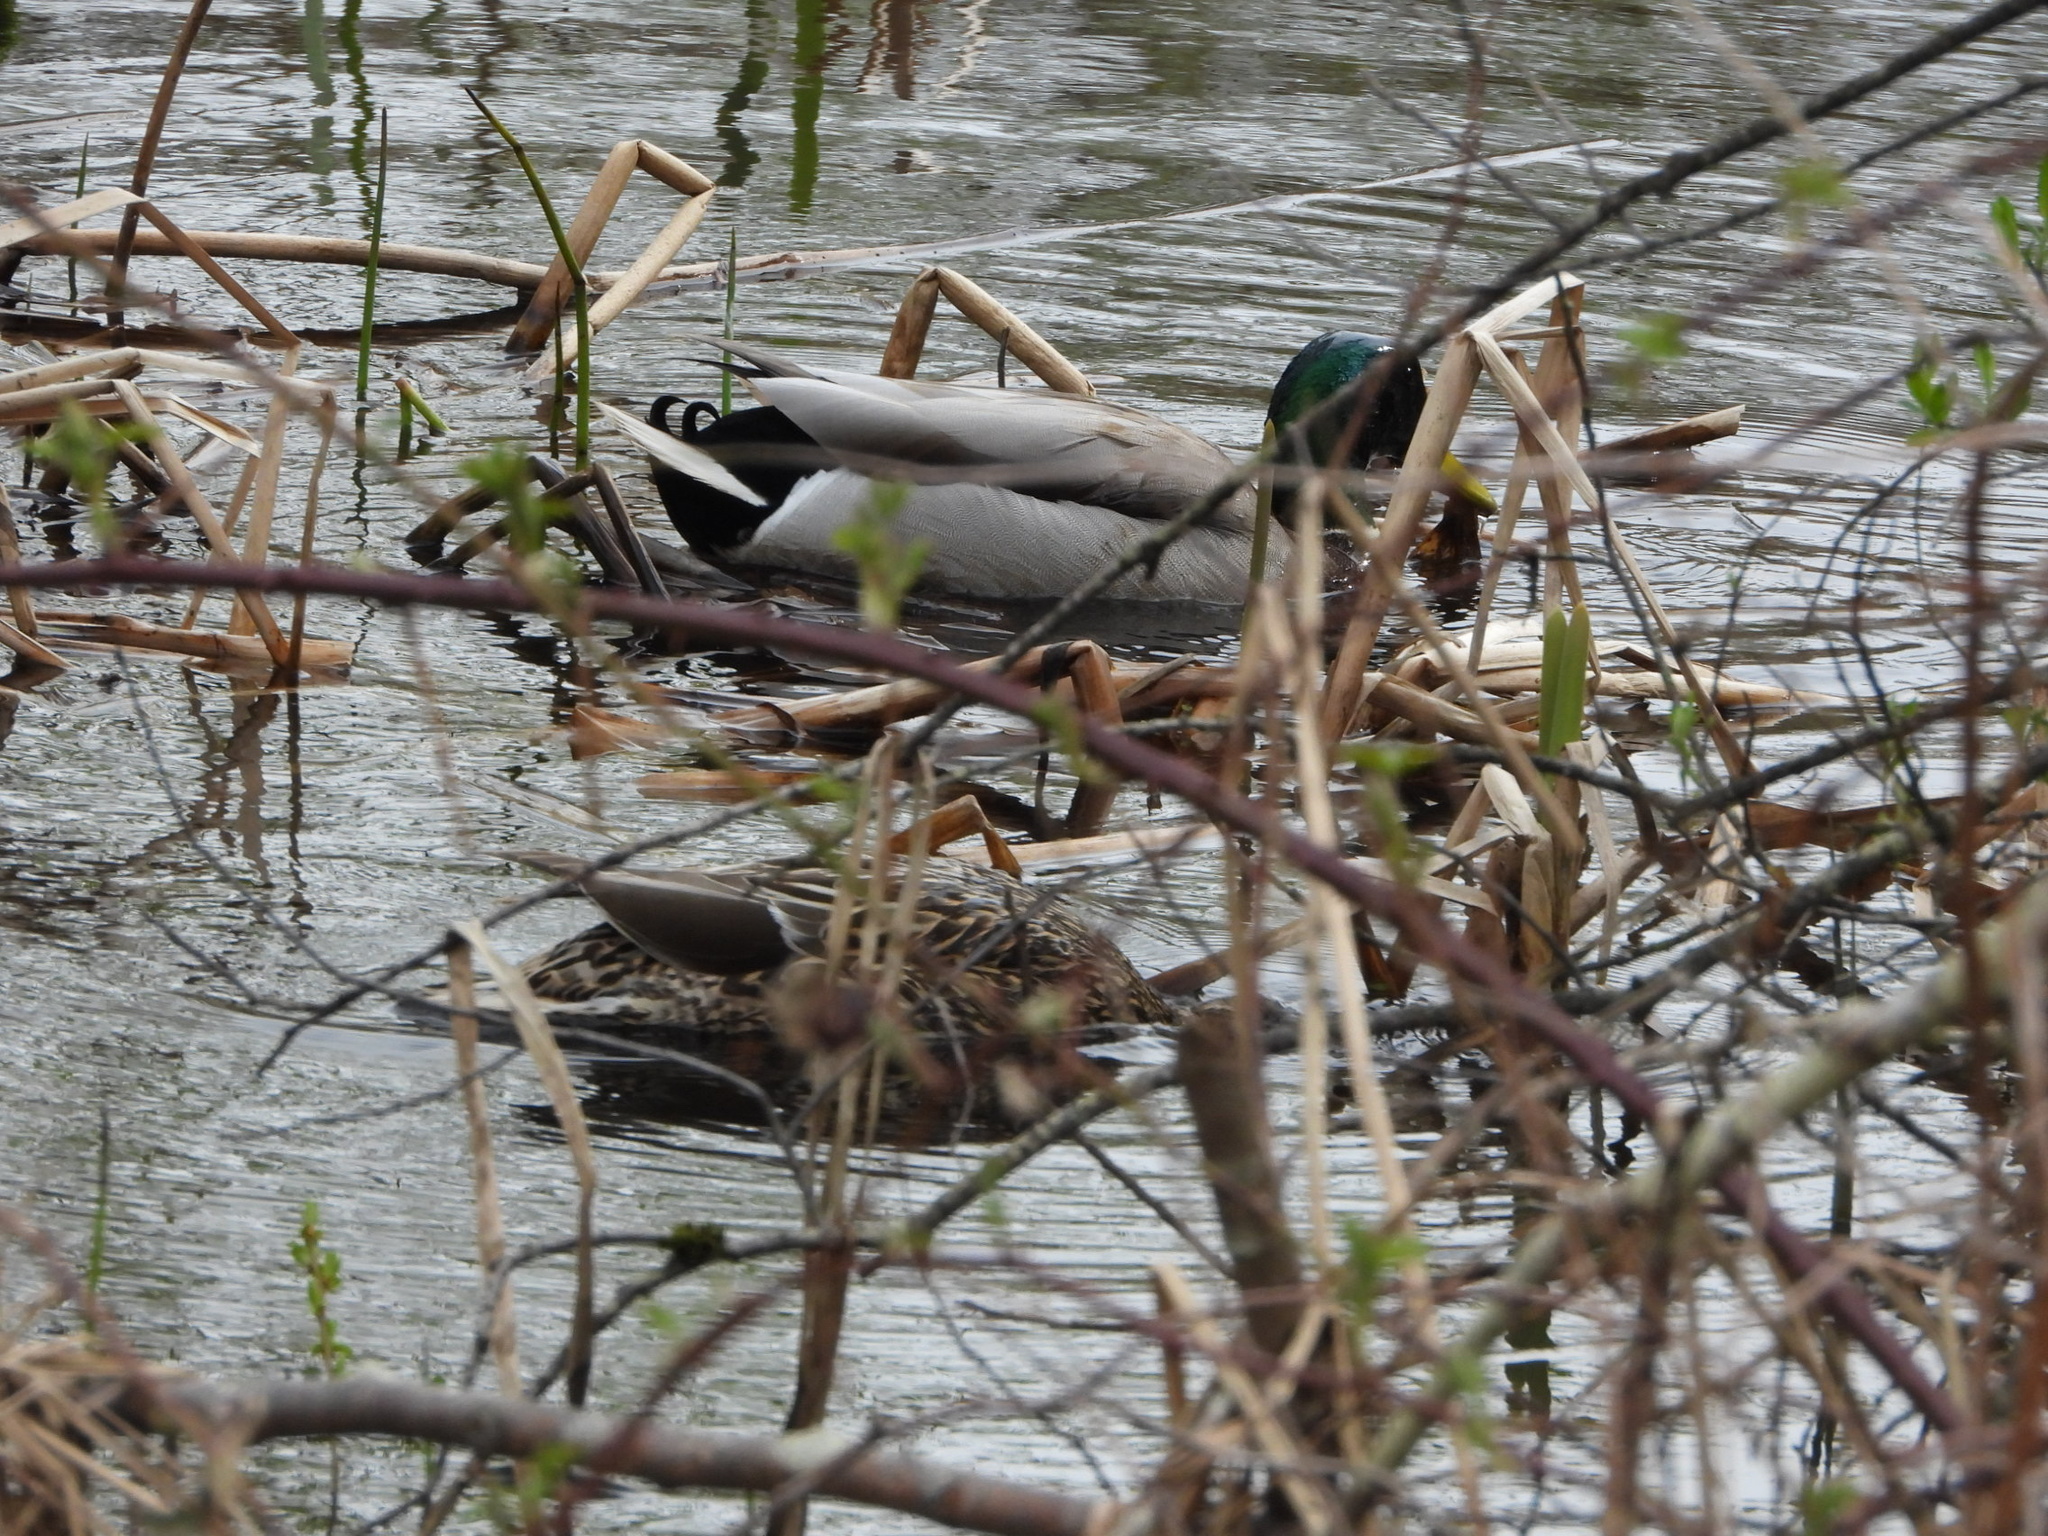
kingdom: Animalia
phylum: Chordata
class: Aves
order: Anseriformes
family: Anatidae
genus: Anas
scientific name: Anas platyrhynchos
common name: Mallard
